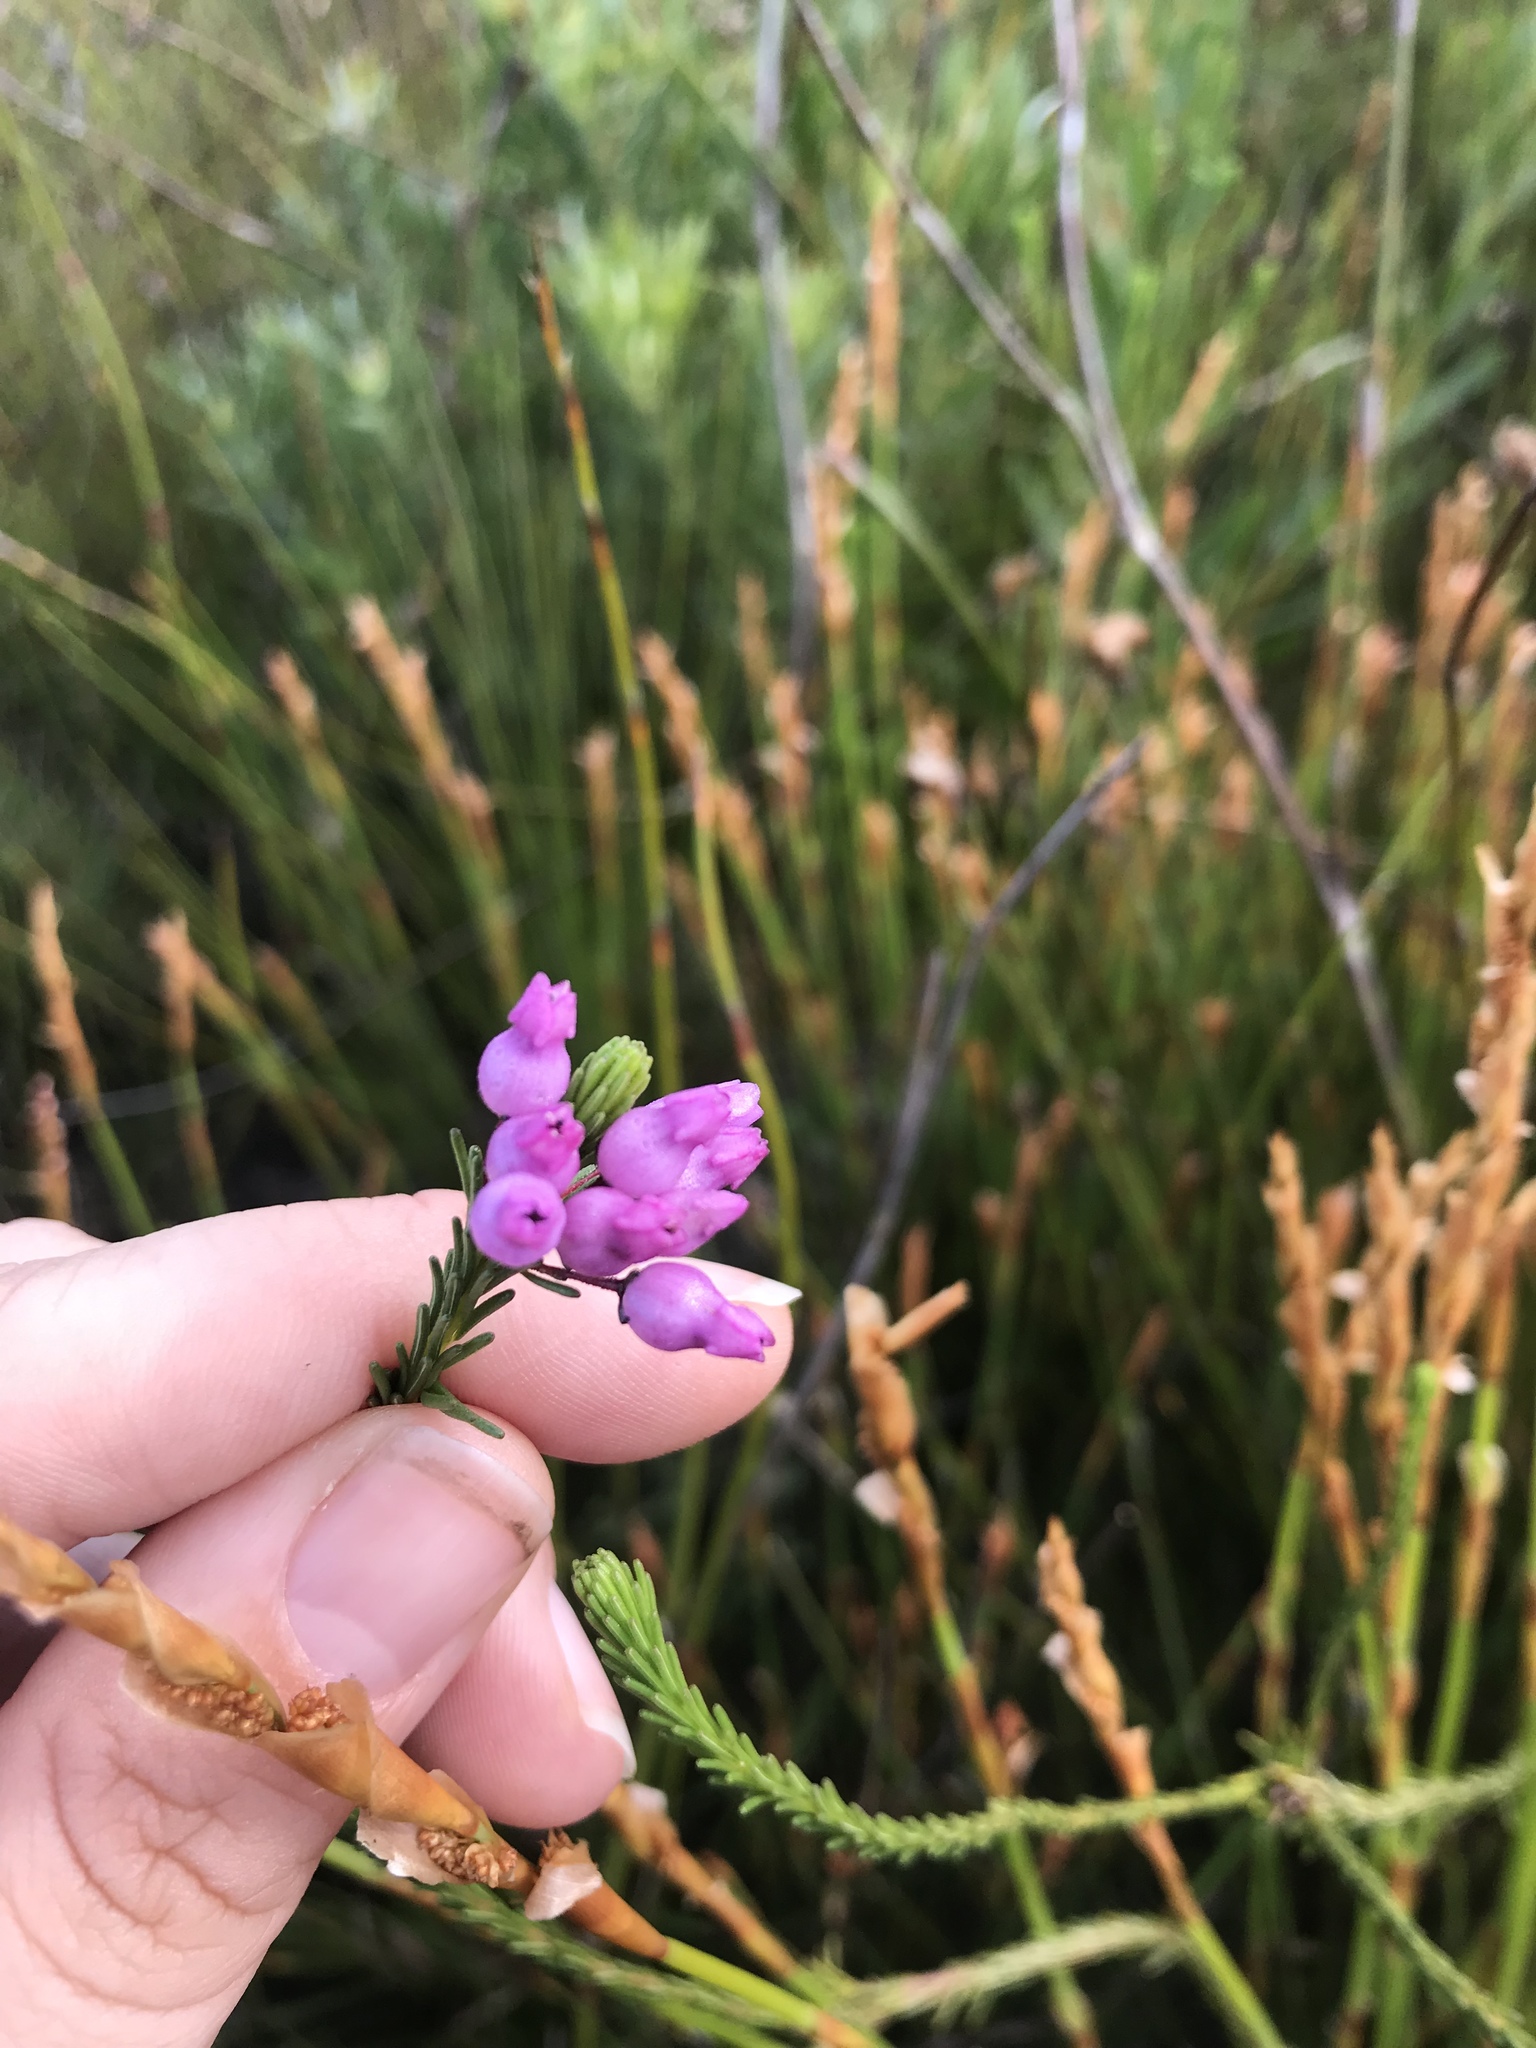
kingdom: Plantae
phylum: Tracheophyta
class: Magnoliopsida
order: Ericales
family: Ericaceae
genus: Erica
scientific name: Erica obliqua
